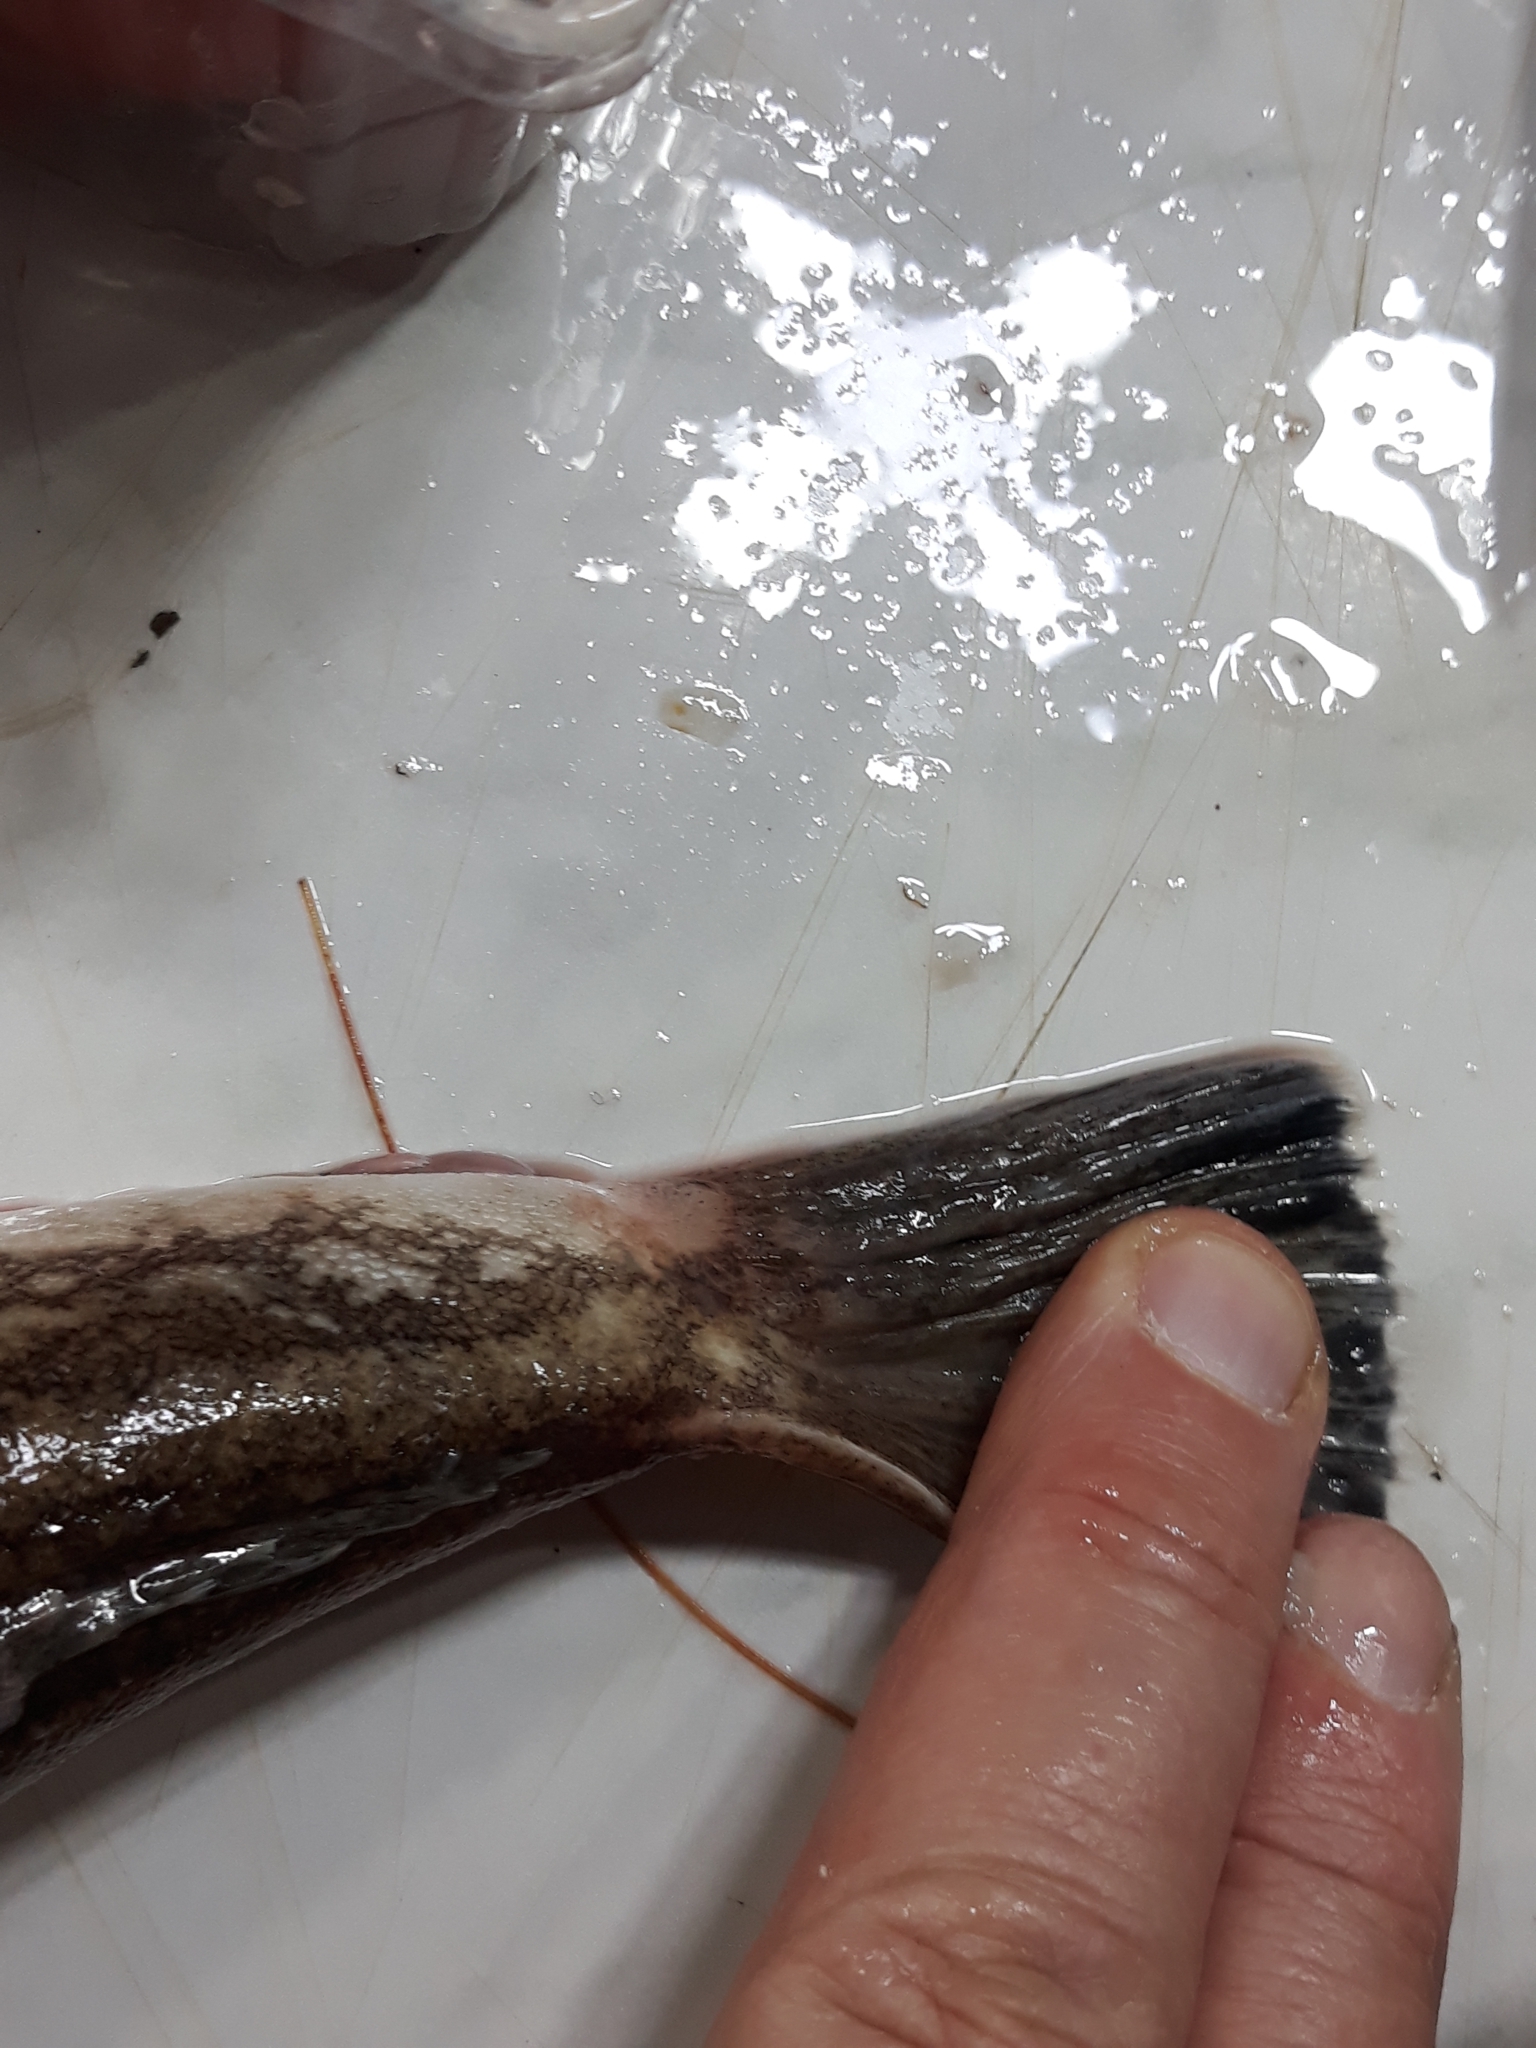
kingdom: Animalia
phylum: Chordata
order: Perciformes
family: Uranoscopidae
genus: Uranoscopus
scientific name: Uranoscopus scaber
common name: Stargazer
